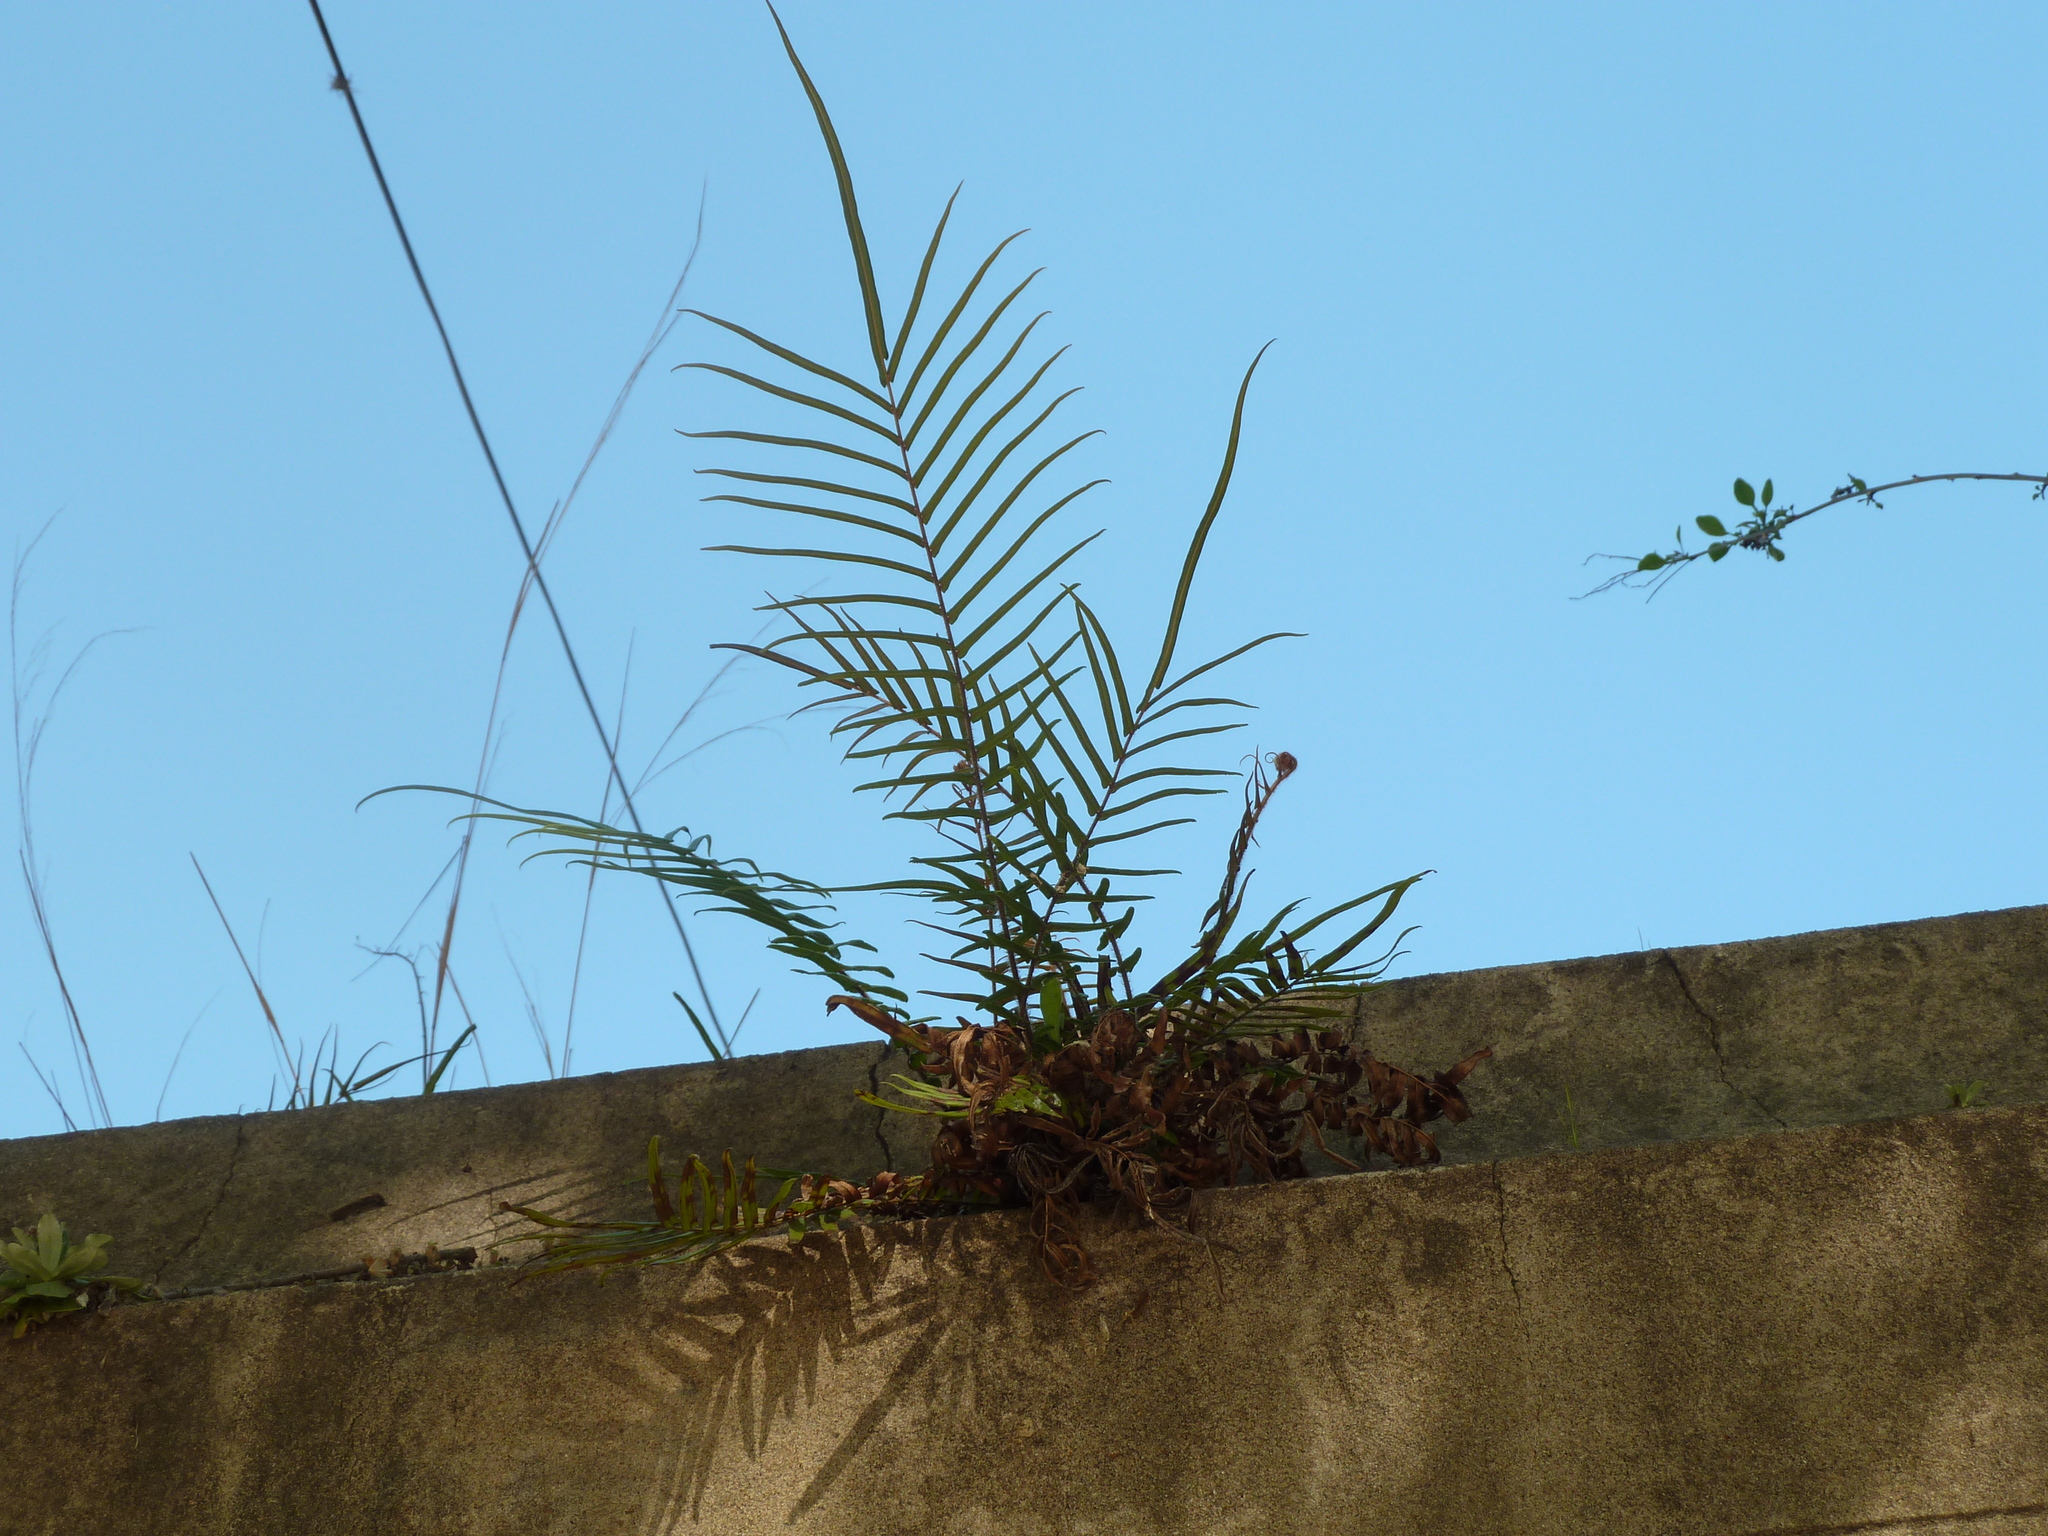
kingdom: Plantae
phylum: Tracheophyta
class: Polypodiopsida
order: Polypodiales
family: Pteridaceae
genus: Pteris
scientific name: Pteris vittata
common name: Ladder brake
